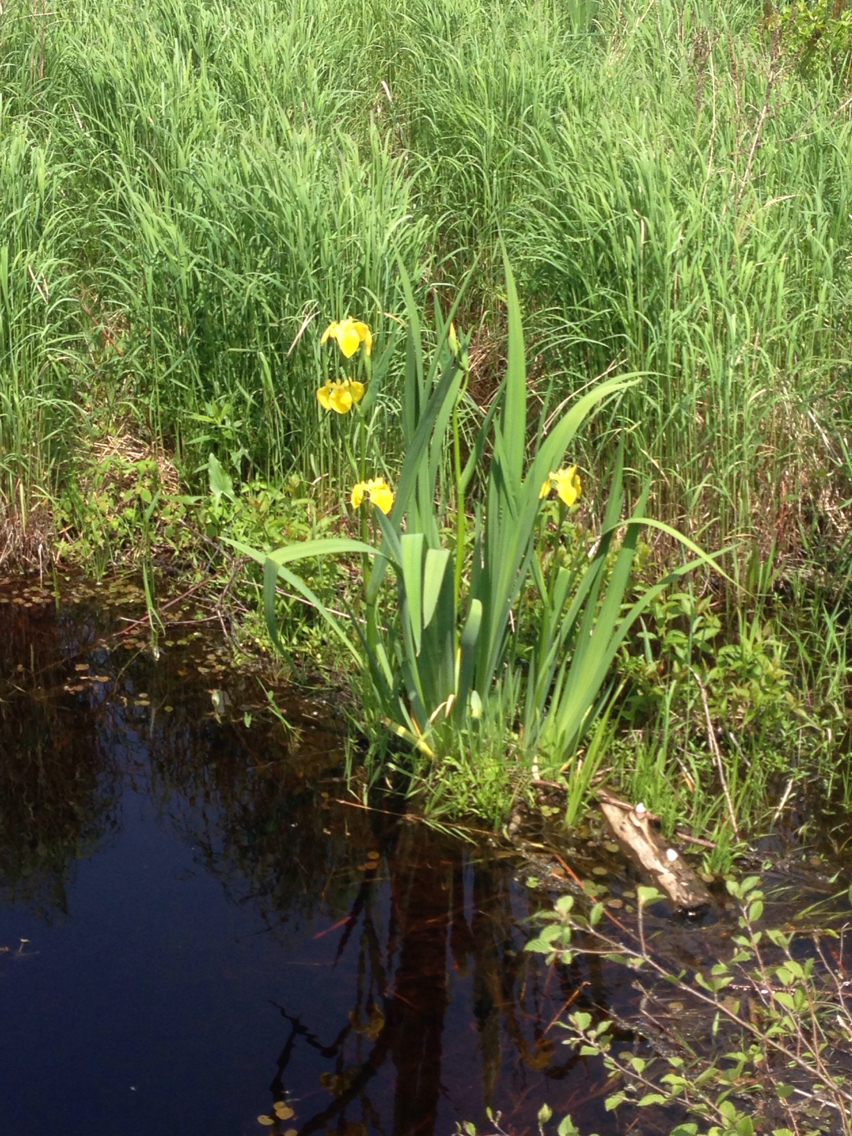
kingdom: Plantae
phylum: Tracheophyta
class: Liliopsida
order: Asparagales
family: Iridaceae
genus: Iris
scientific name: Iris pseudacorus
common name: Yellow flag
